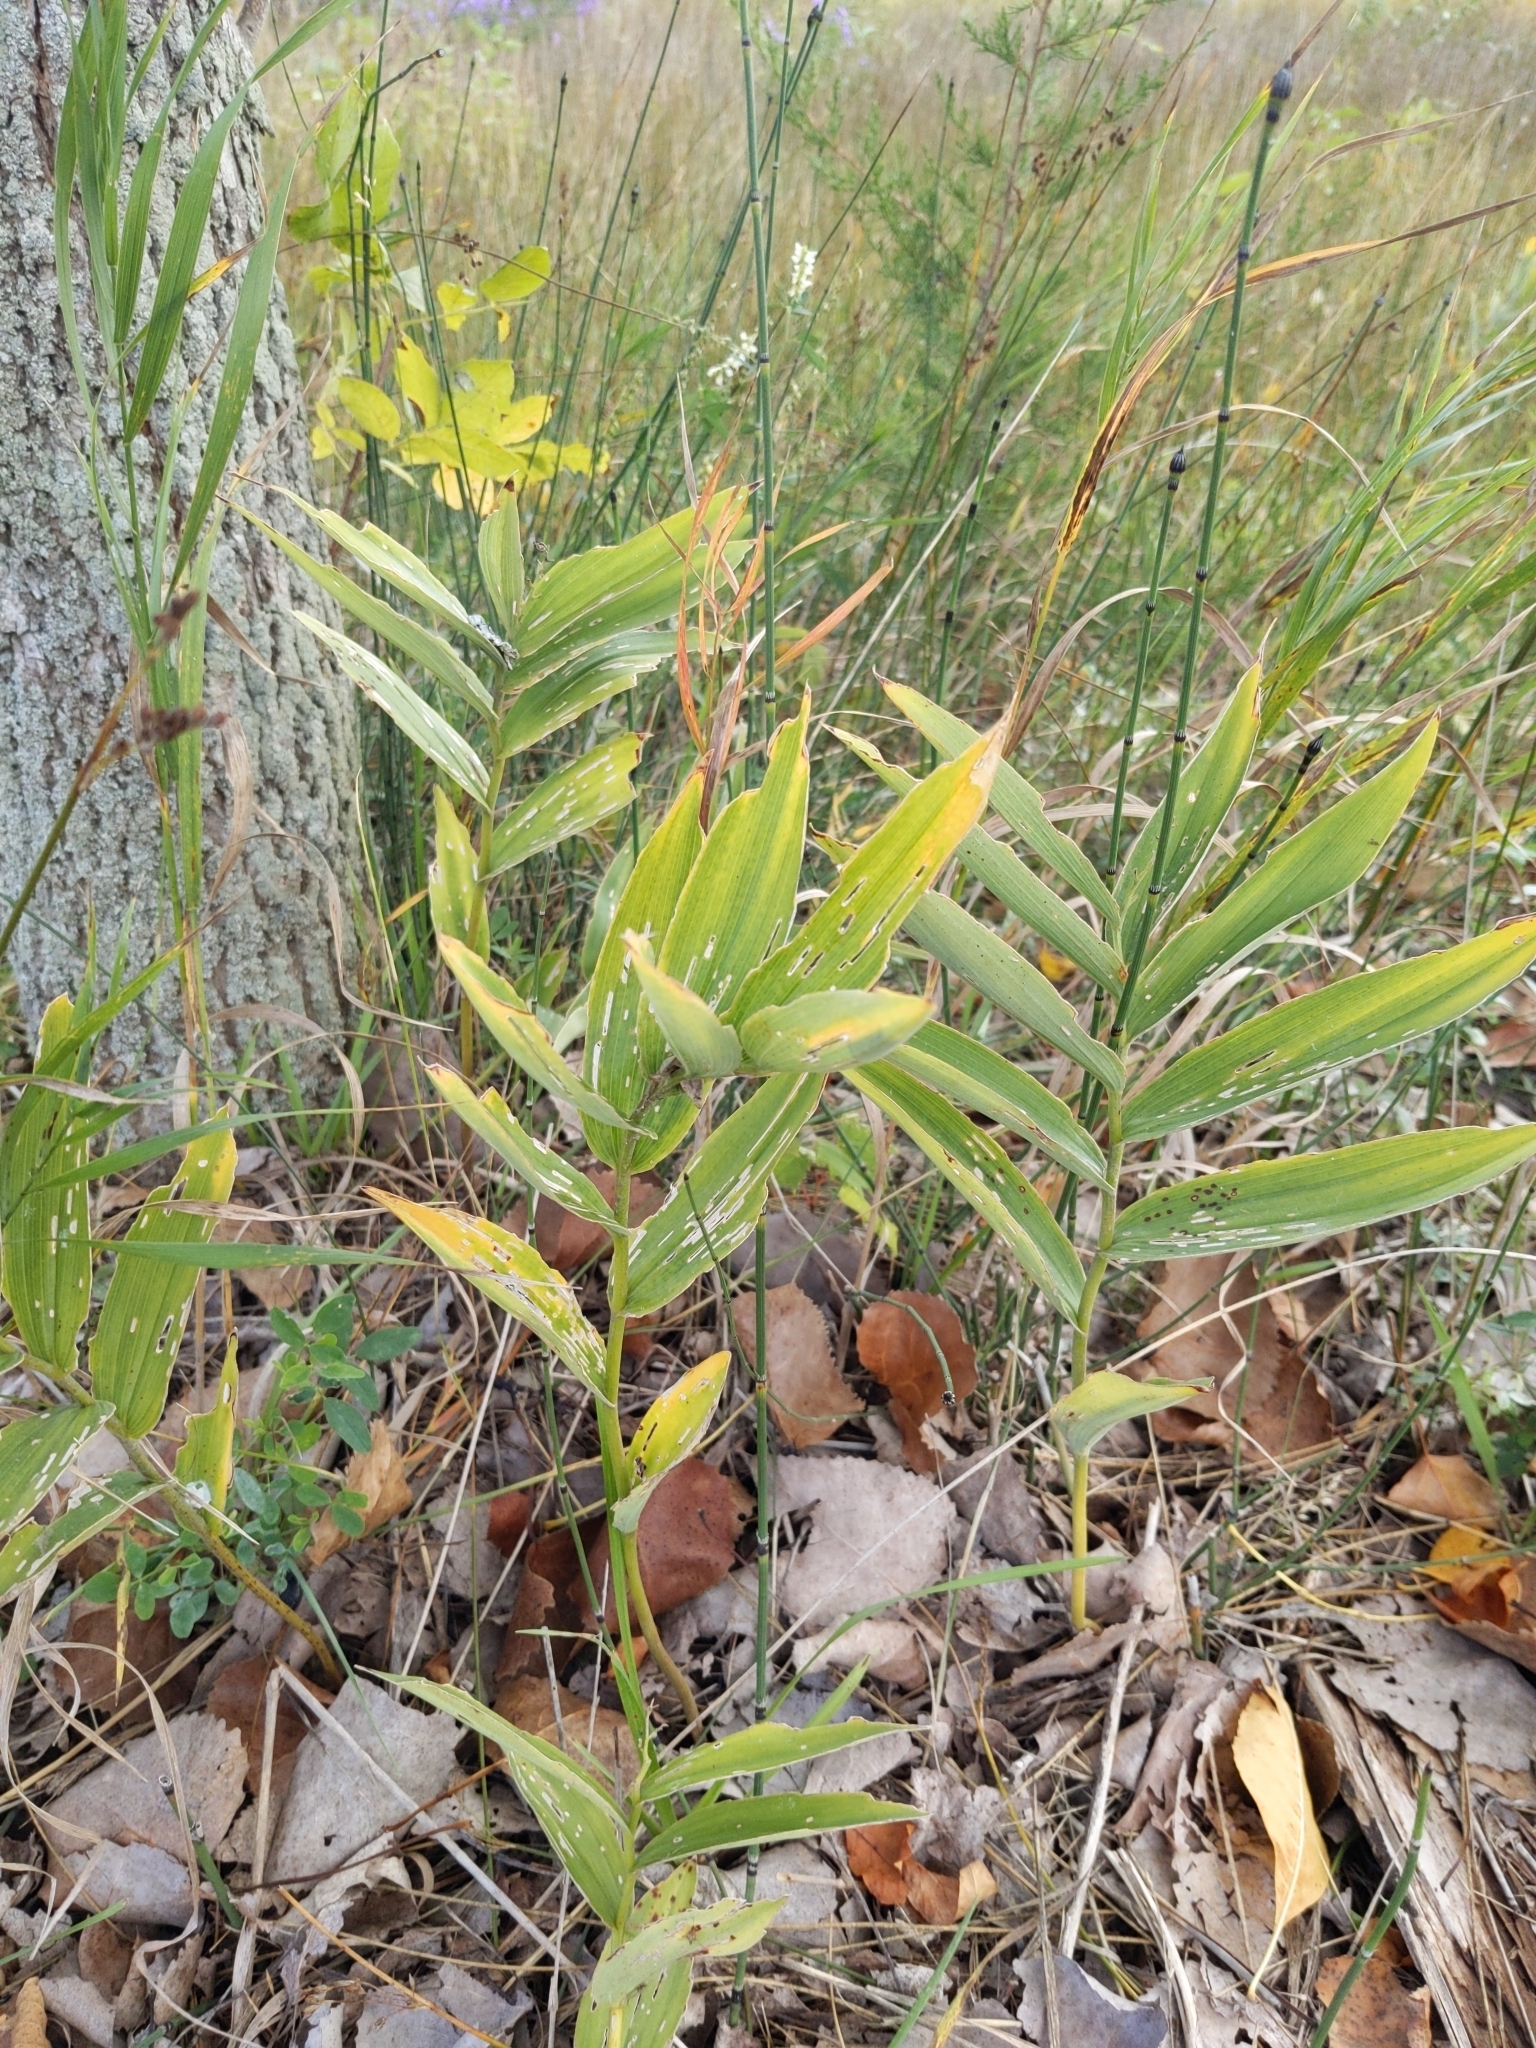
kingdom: Plantae
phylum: Tracheophyta
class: Liliopsida
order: Asparagales
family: Asparagaceae
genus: Maianthemum
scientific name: Maianthemum stellatum
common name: Little false solomon's seal
